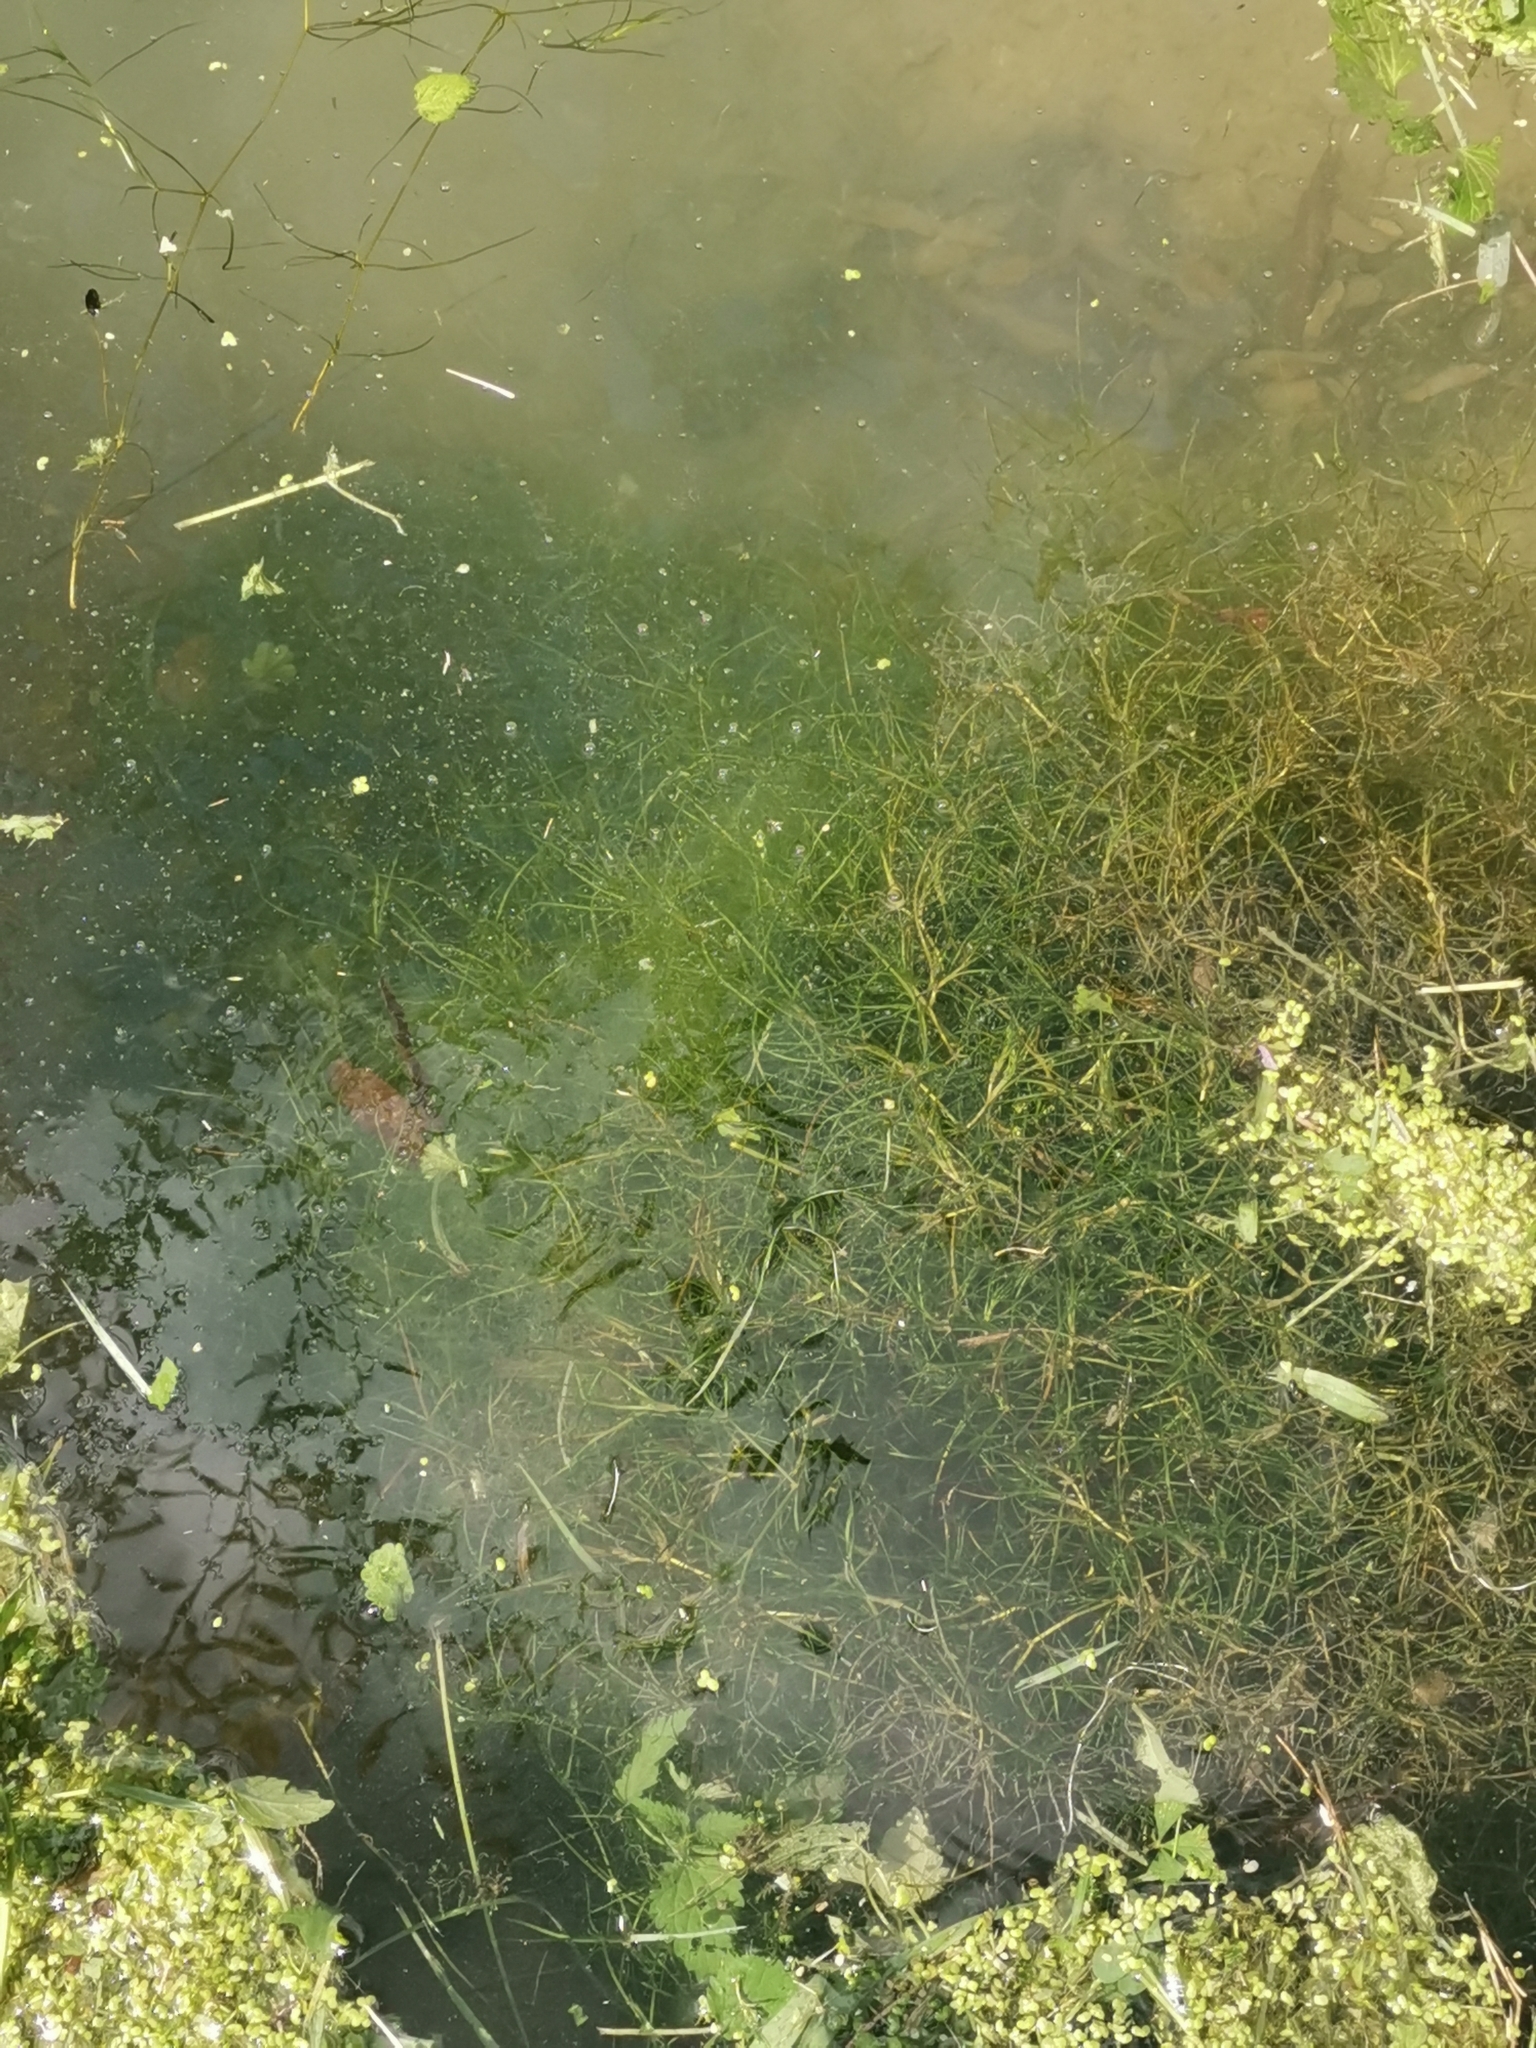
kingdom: Plantae
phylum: Tracheophyta
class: Liliopsida
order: Alismatales
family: Potamogetonaceae
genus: Zannichellia
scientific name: Zannichellia palustris
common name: Horned pondweed
